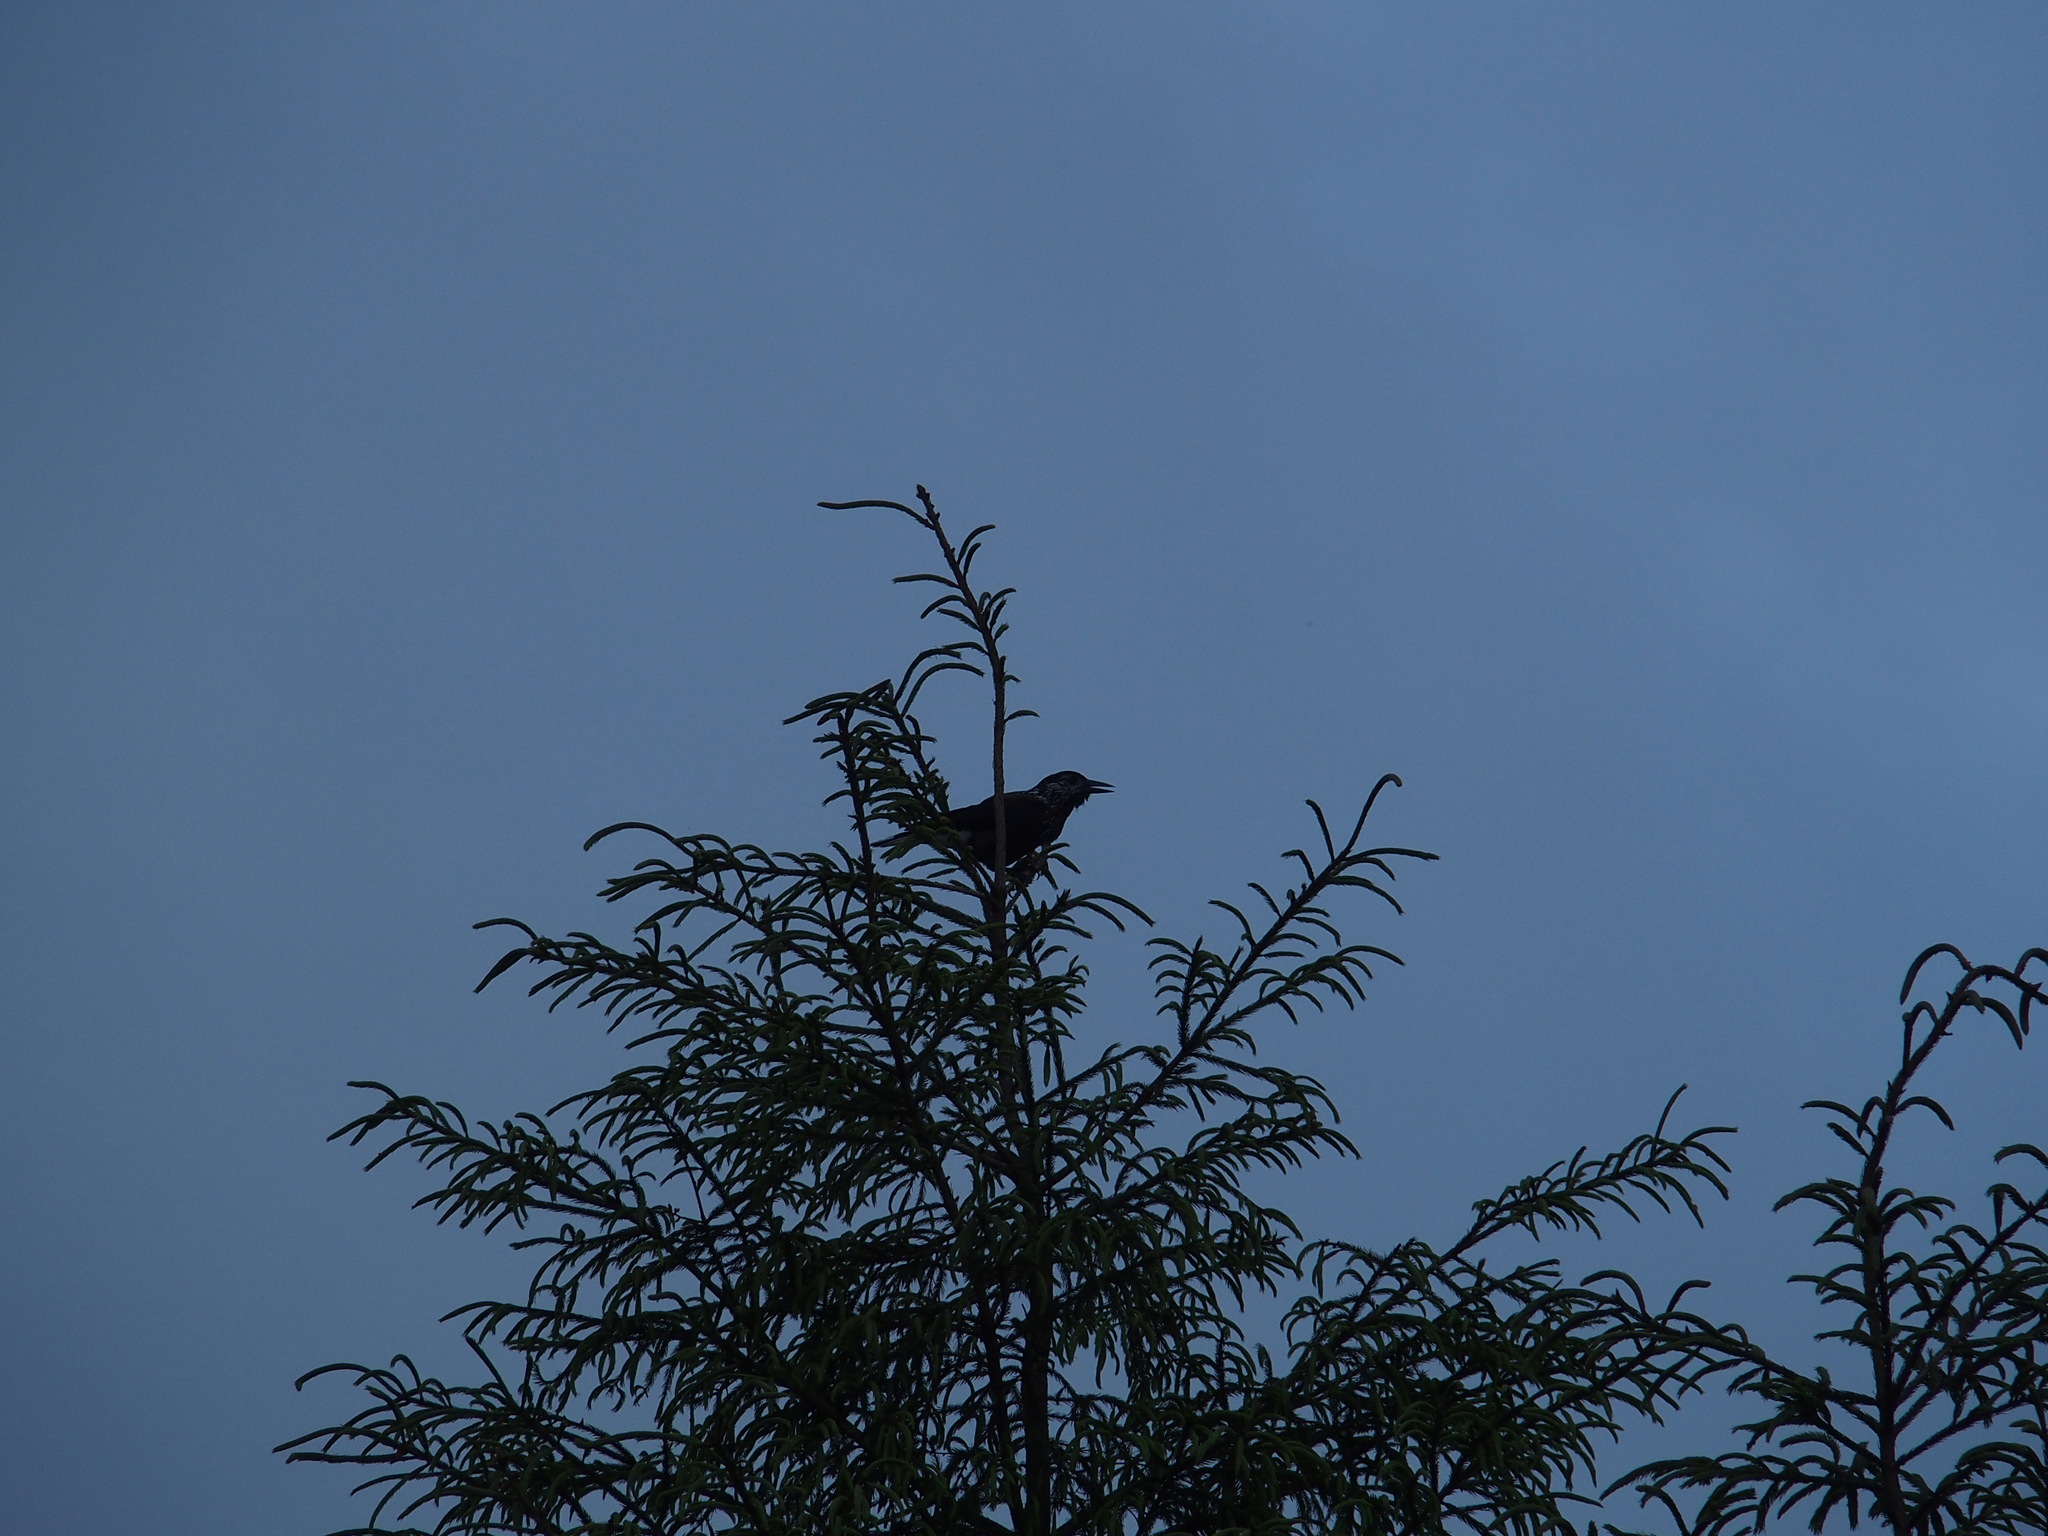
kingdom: Animalia
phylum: Chordata
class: Aves
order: Passeriformes
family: Corvidae
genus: Nucifraga
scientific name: Nucifraga caryocatactes
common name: Spotted nutcracker
